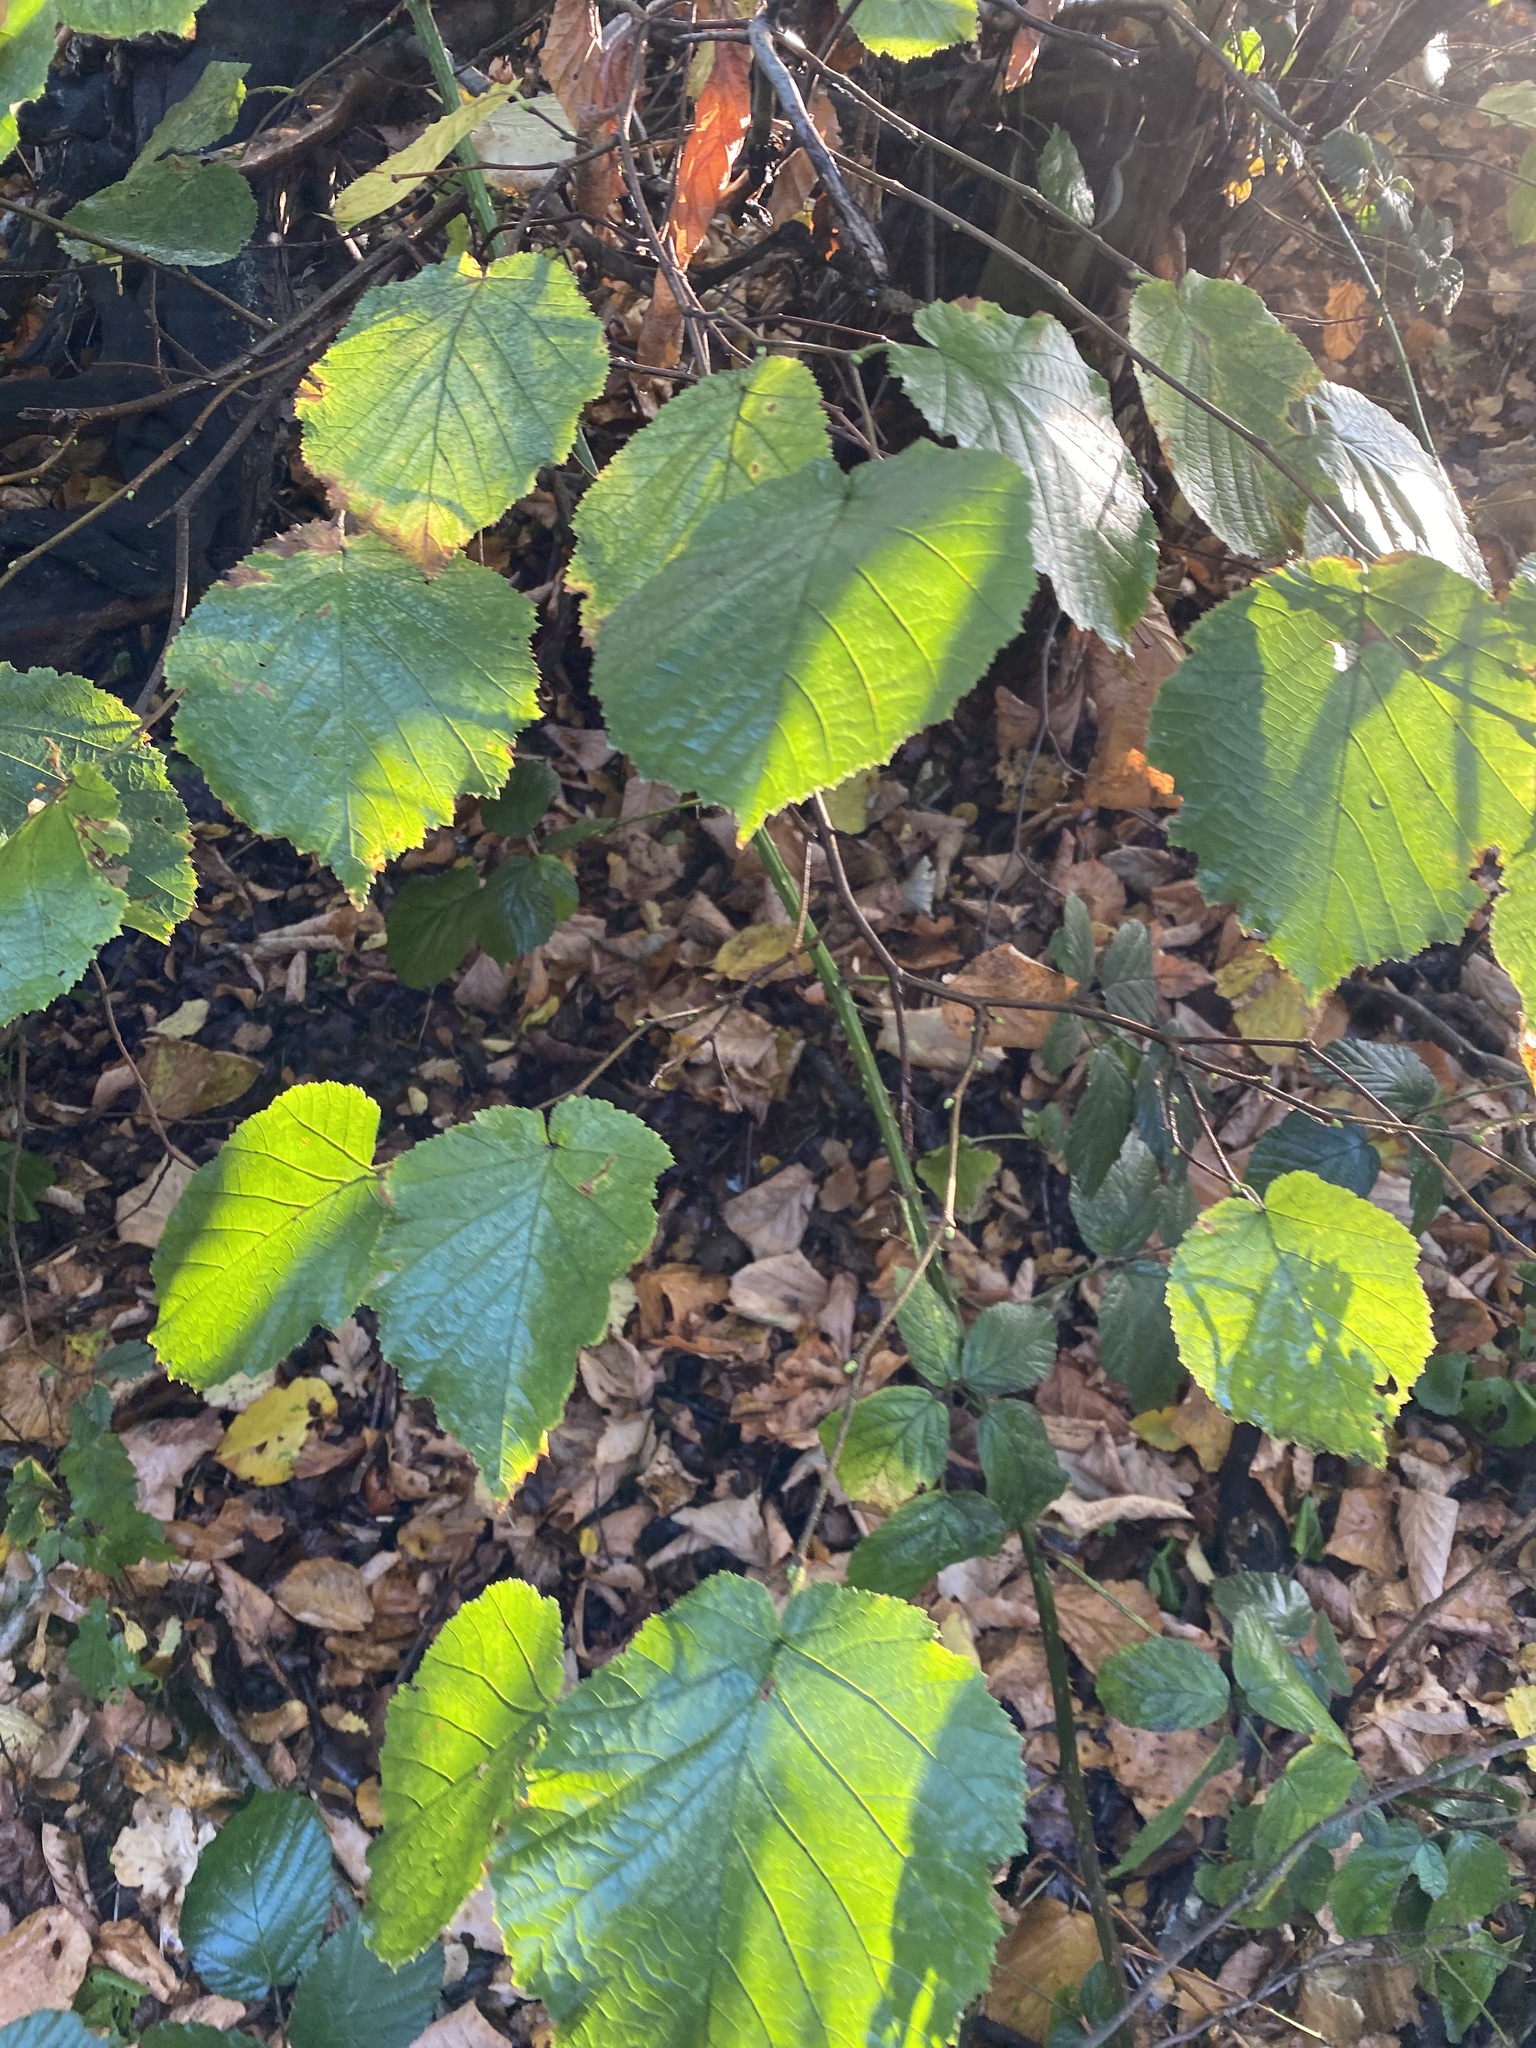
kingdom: Plantae
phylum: Tracheophyta
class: Magnoliopsida
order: Fagales
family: Betulaceae
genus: Corylus
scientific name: Corylus avellana
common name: European hazel
